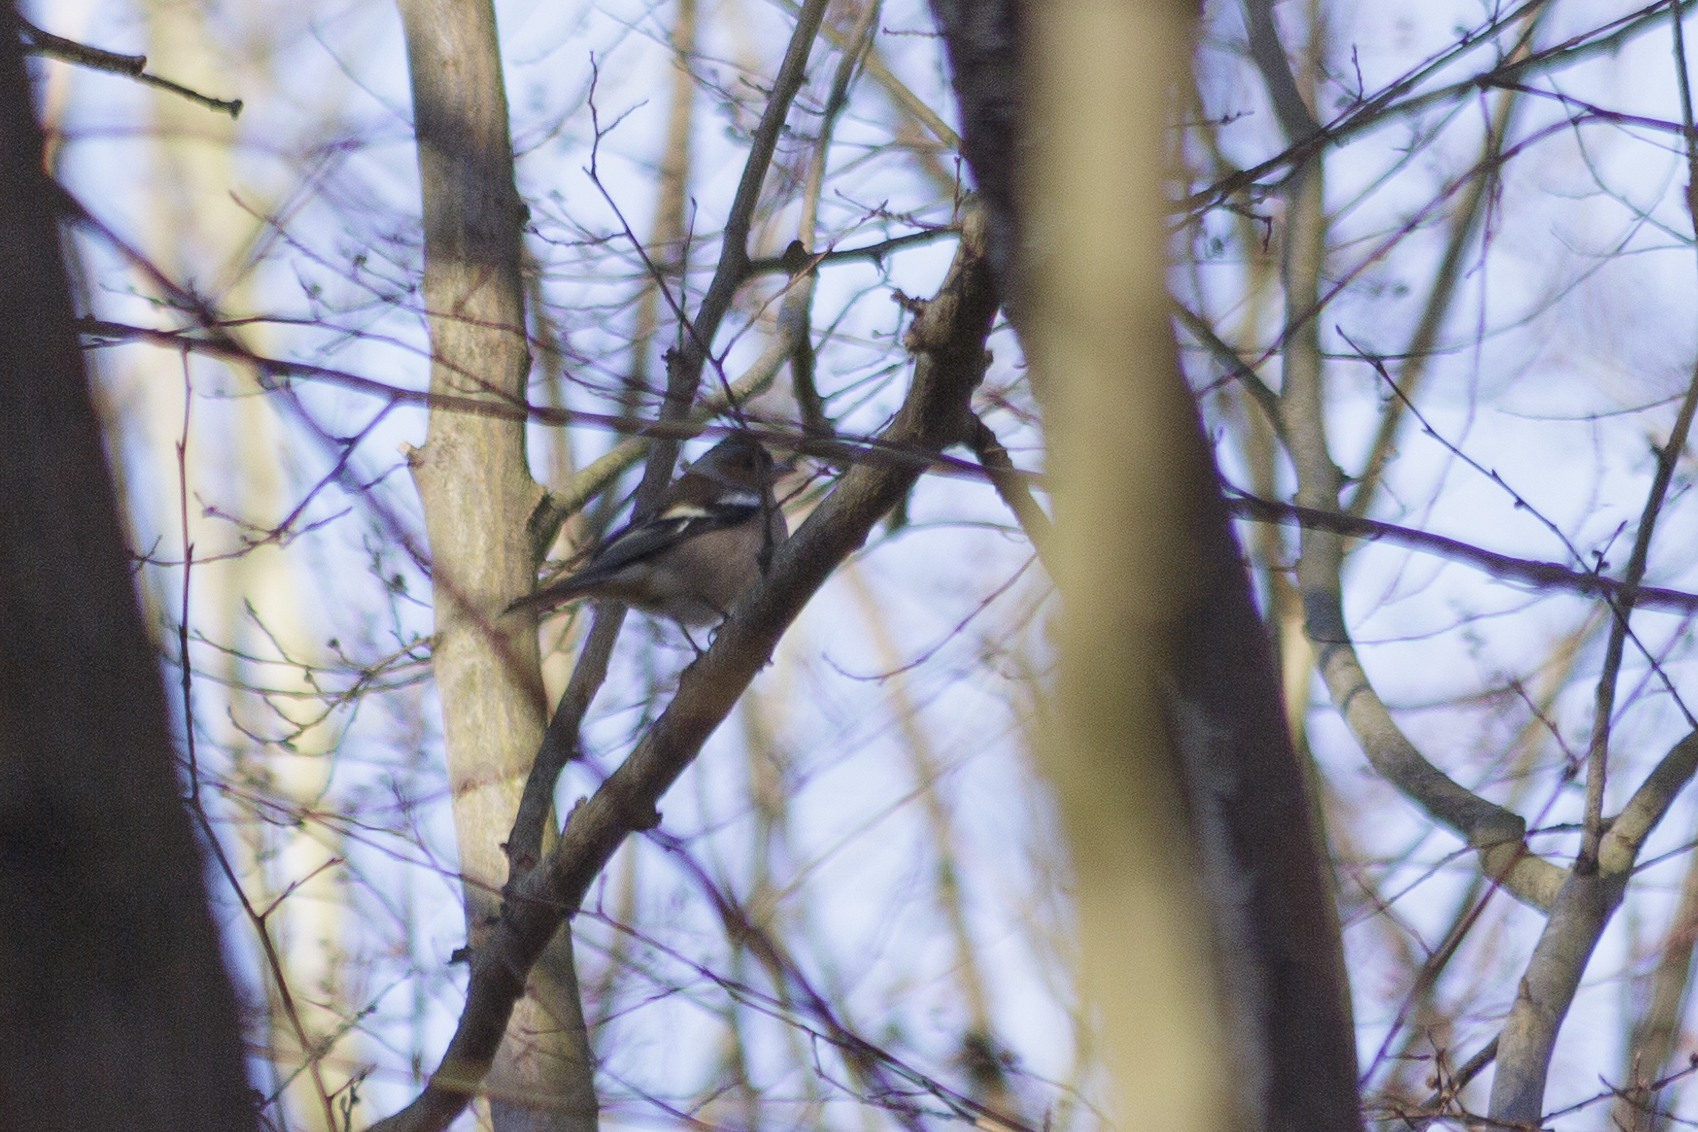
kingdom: Animalia
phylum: Chordata
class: Aves
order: Passeriformes
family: Fringillidae
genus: Fringilla
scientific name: Fringilla coelebs
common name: Common chaffinch
